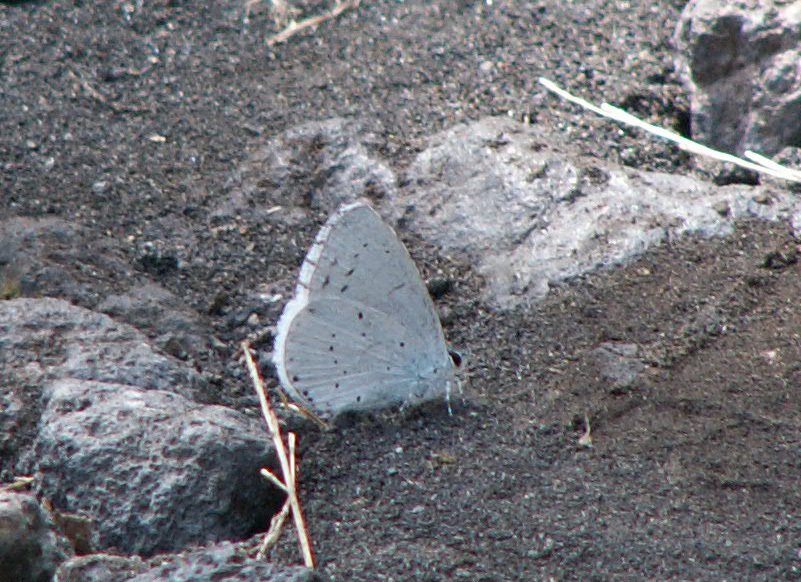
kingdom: Animalia
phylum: Arthropoda
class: Insecta
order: Lepidoptera
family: Lycaenidae
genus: Celastrina
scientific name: Celastrina argiolus
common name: Holly blue
